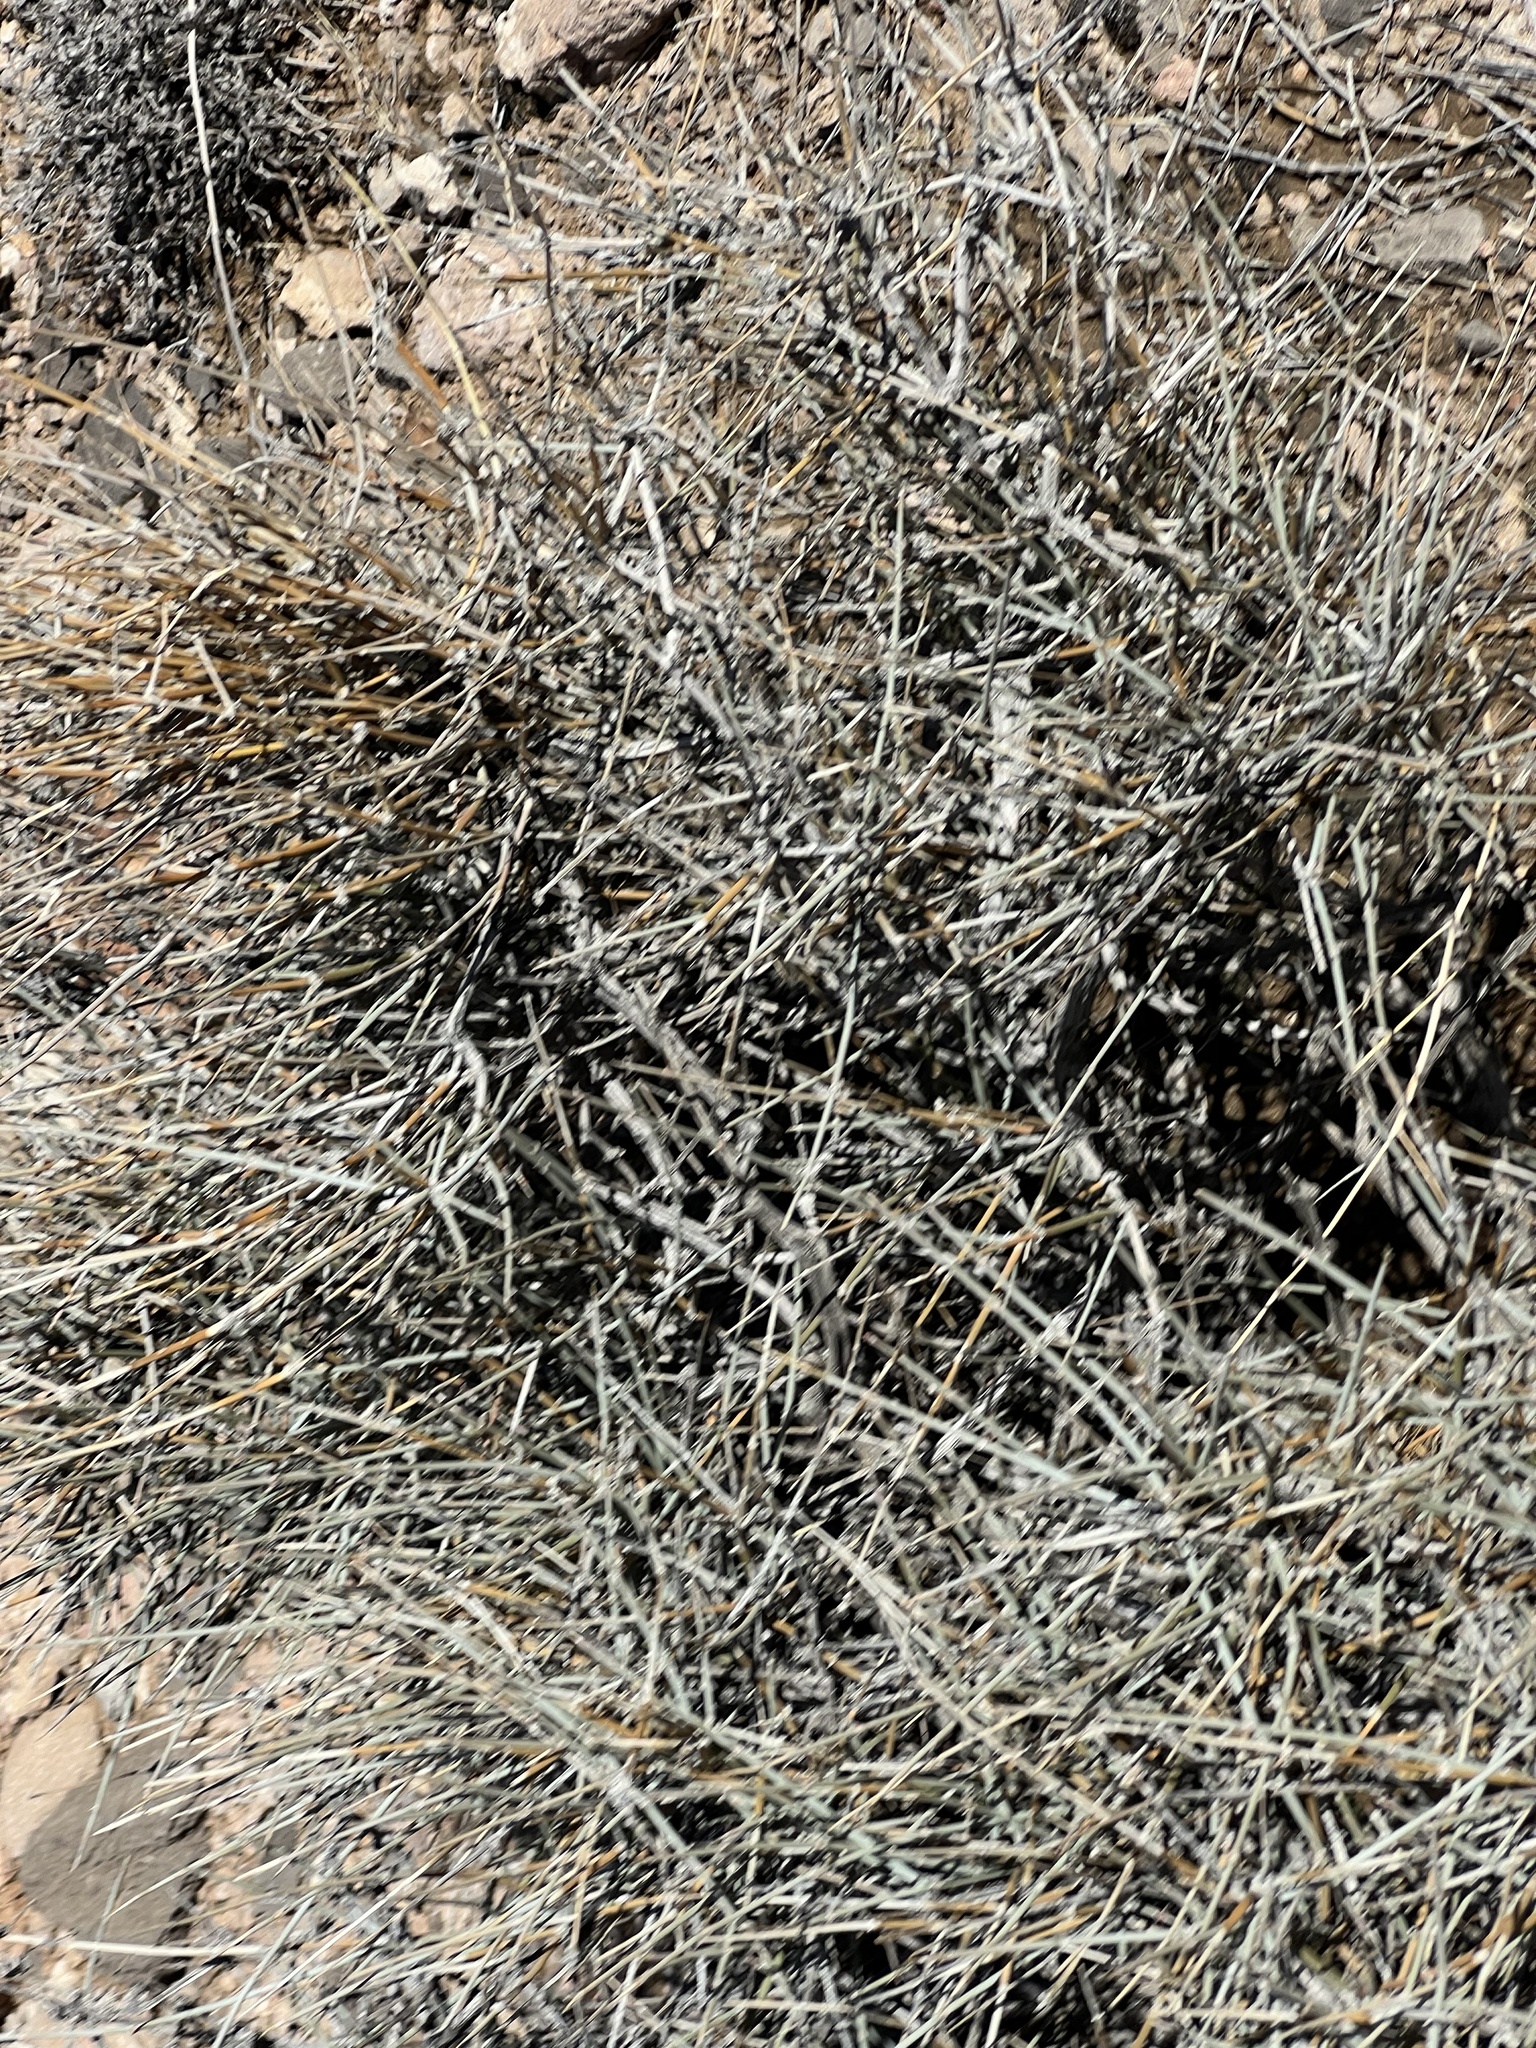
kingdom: Plantae
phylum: Tracheophyta
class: Gnetopsida
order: Ephedrales
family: Ephedraceae
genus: Ephedra
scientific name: Ephedra nevadensis
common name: Gray ephedra
